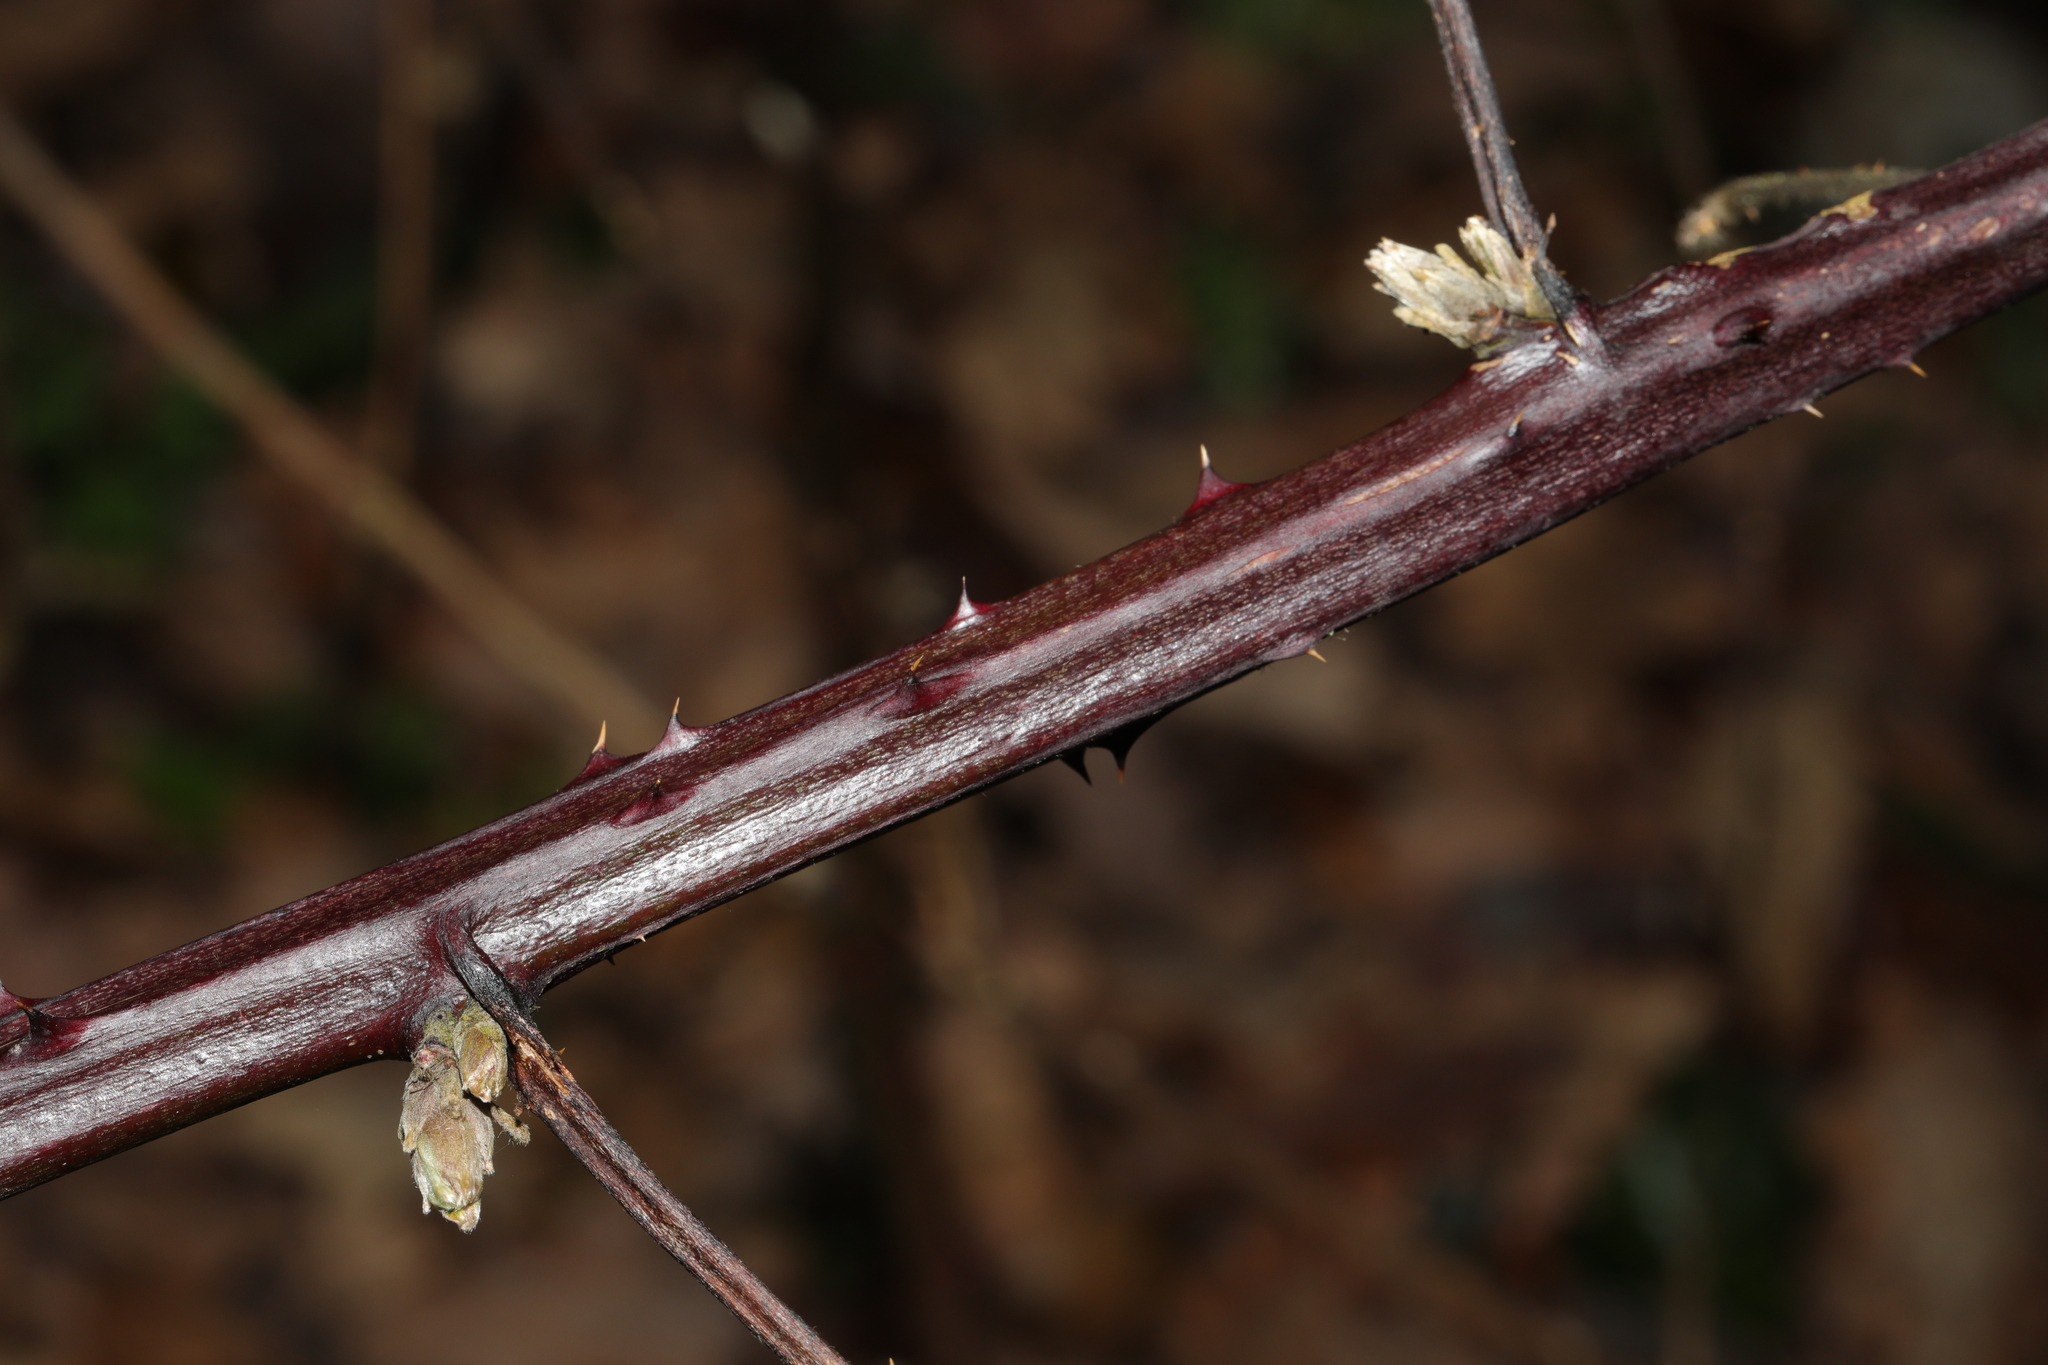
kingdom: Plantae
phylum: Tracheophyta
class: Magnoliopsida
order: Rosales
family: Rosaceae
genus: Rubus
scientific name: Rubus armeniacus
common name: Himalayan blackberry
